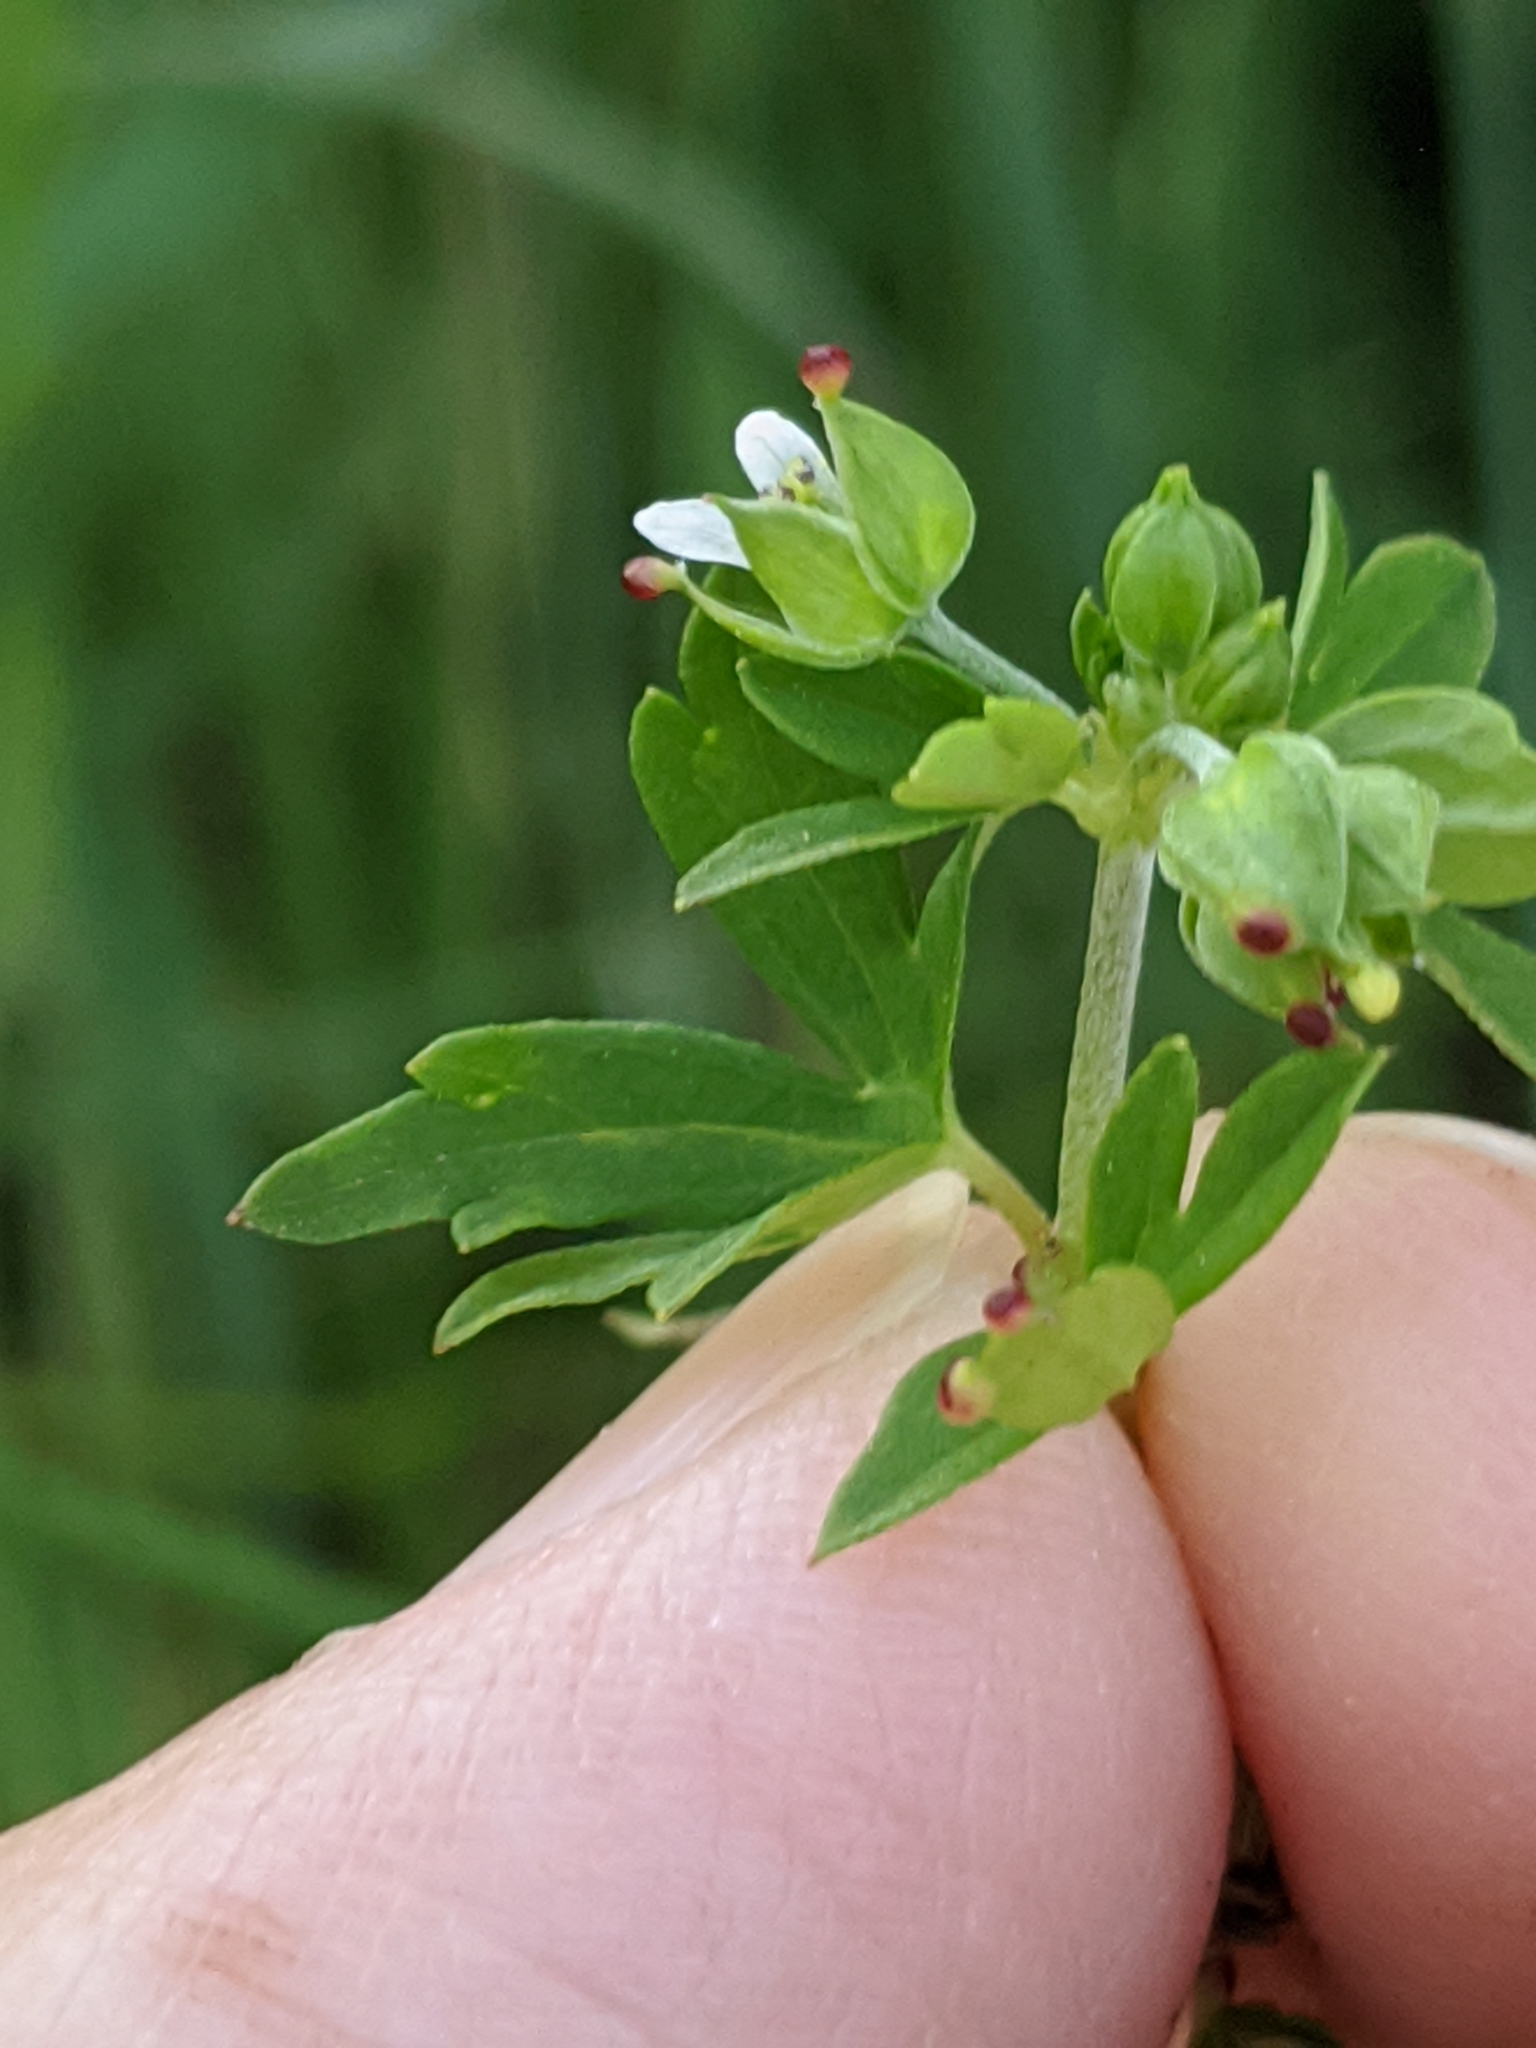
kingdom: Fungi
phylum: Chytridiomycota
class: Chytridiomycetes
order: Chytridiales
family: Synchytriaceae
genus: Synchytrium
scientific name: Synchytrium geranii
